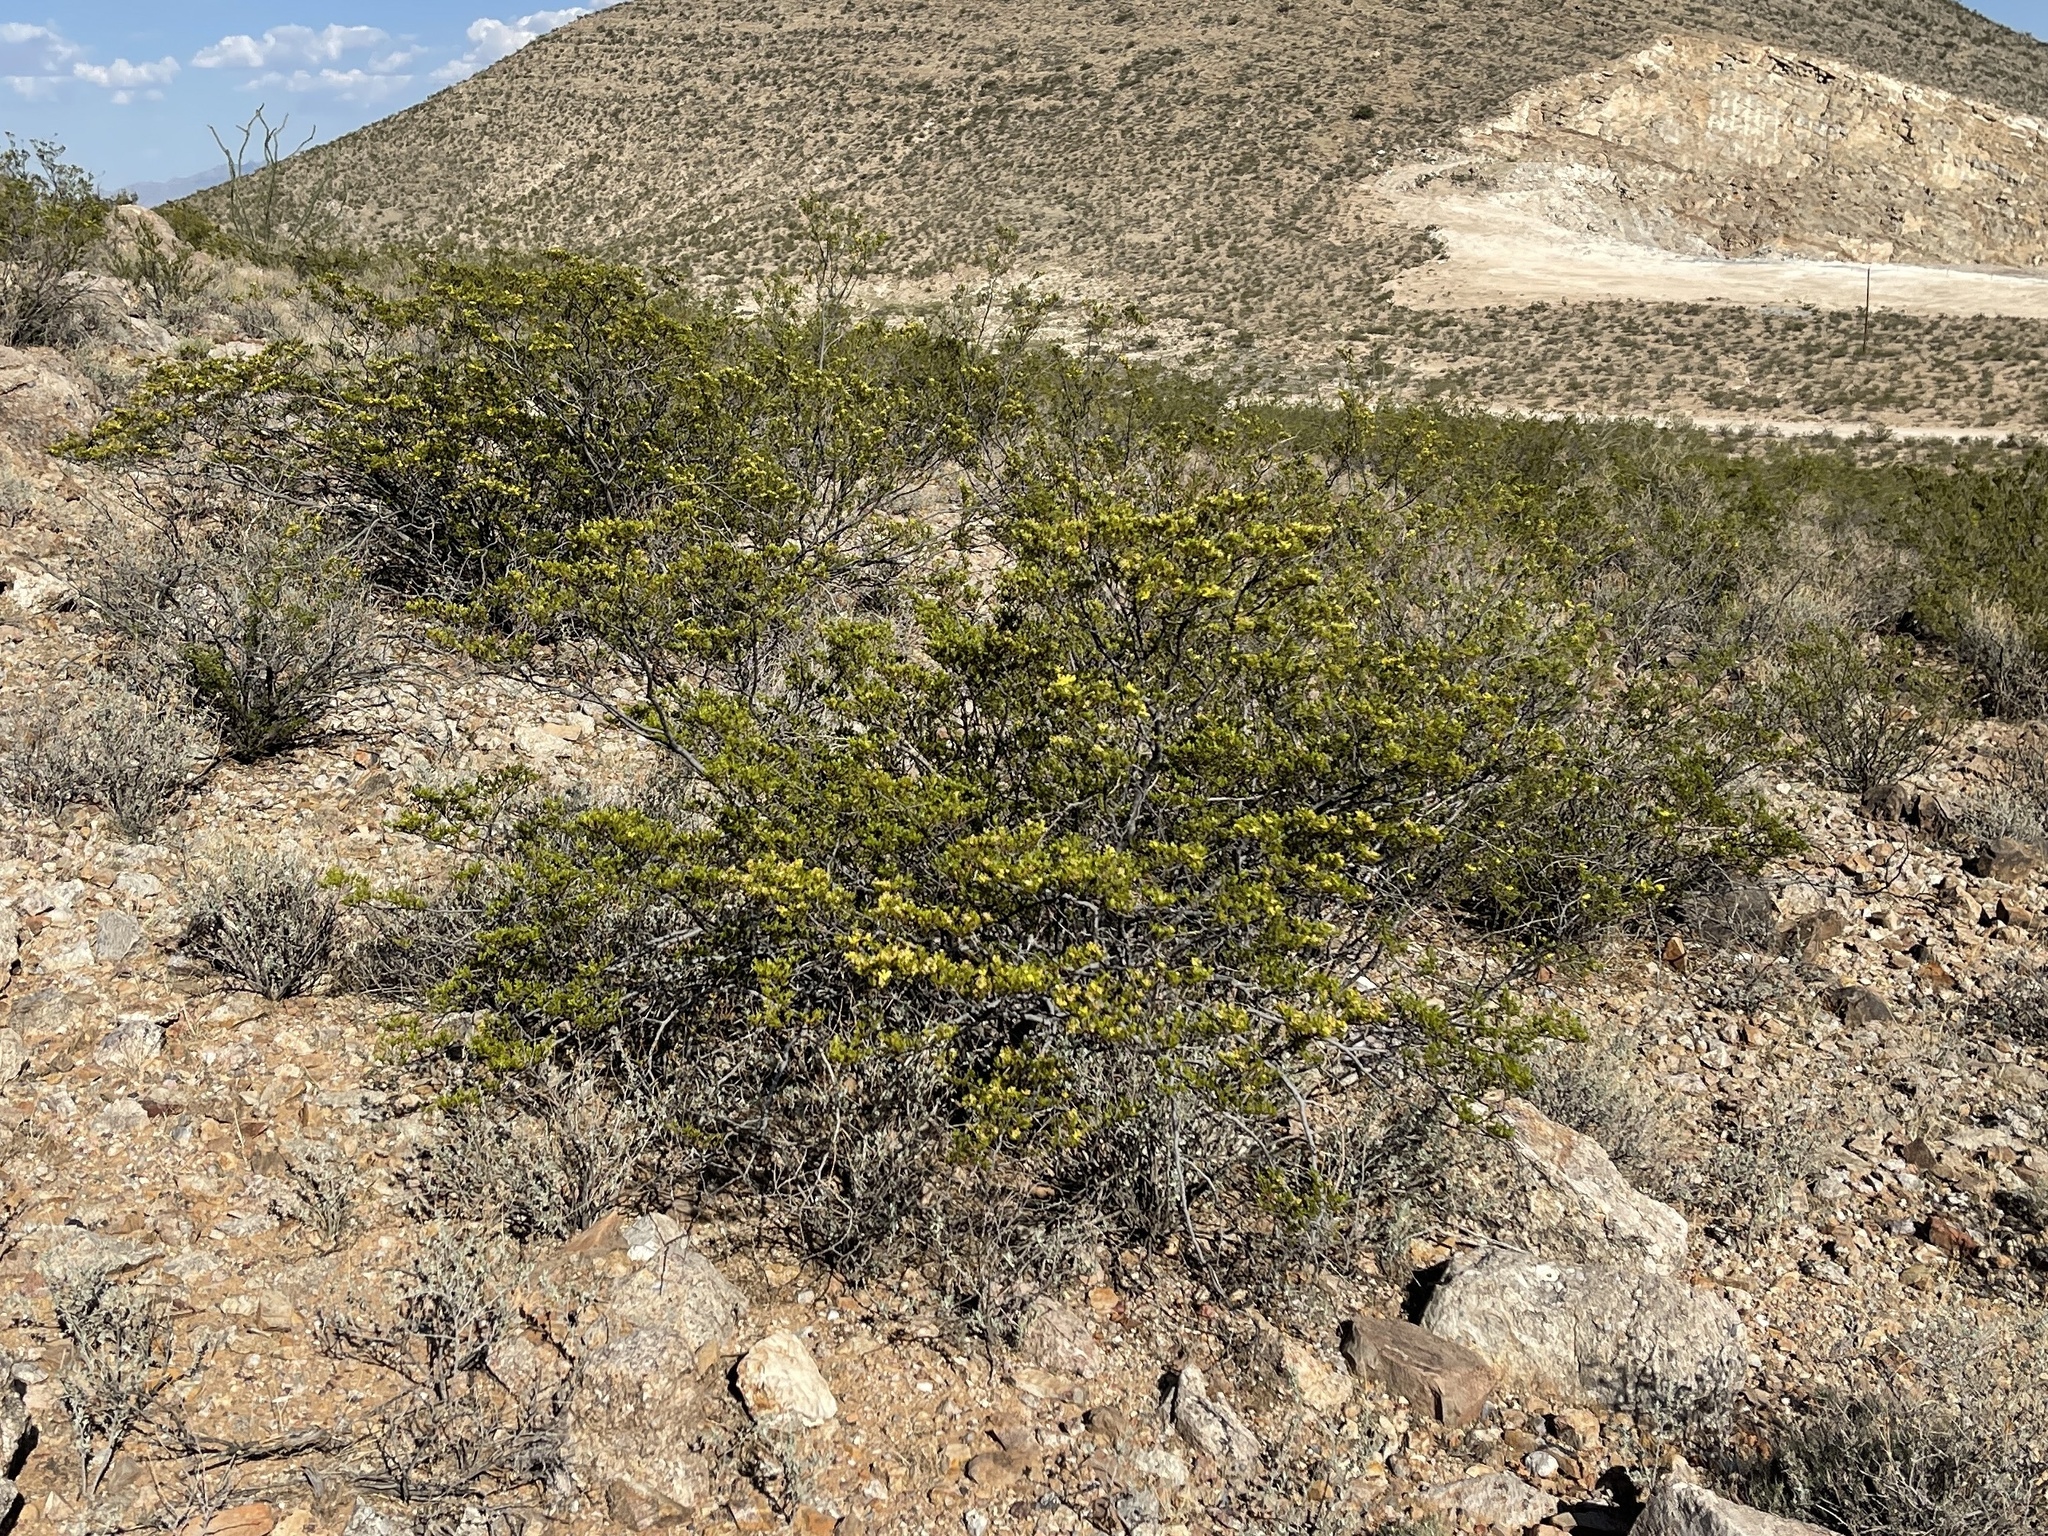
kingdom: Plantae
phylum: Tracheophyta
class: Magnoliopsida
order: Zygophyllales
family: Zygophyllaceae
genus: Larrea
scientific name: Larrea tridentata
